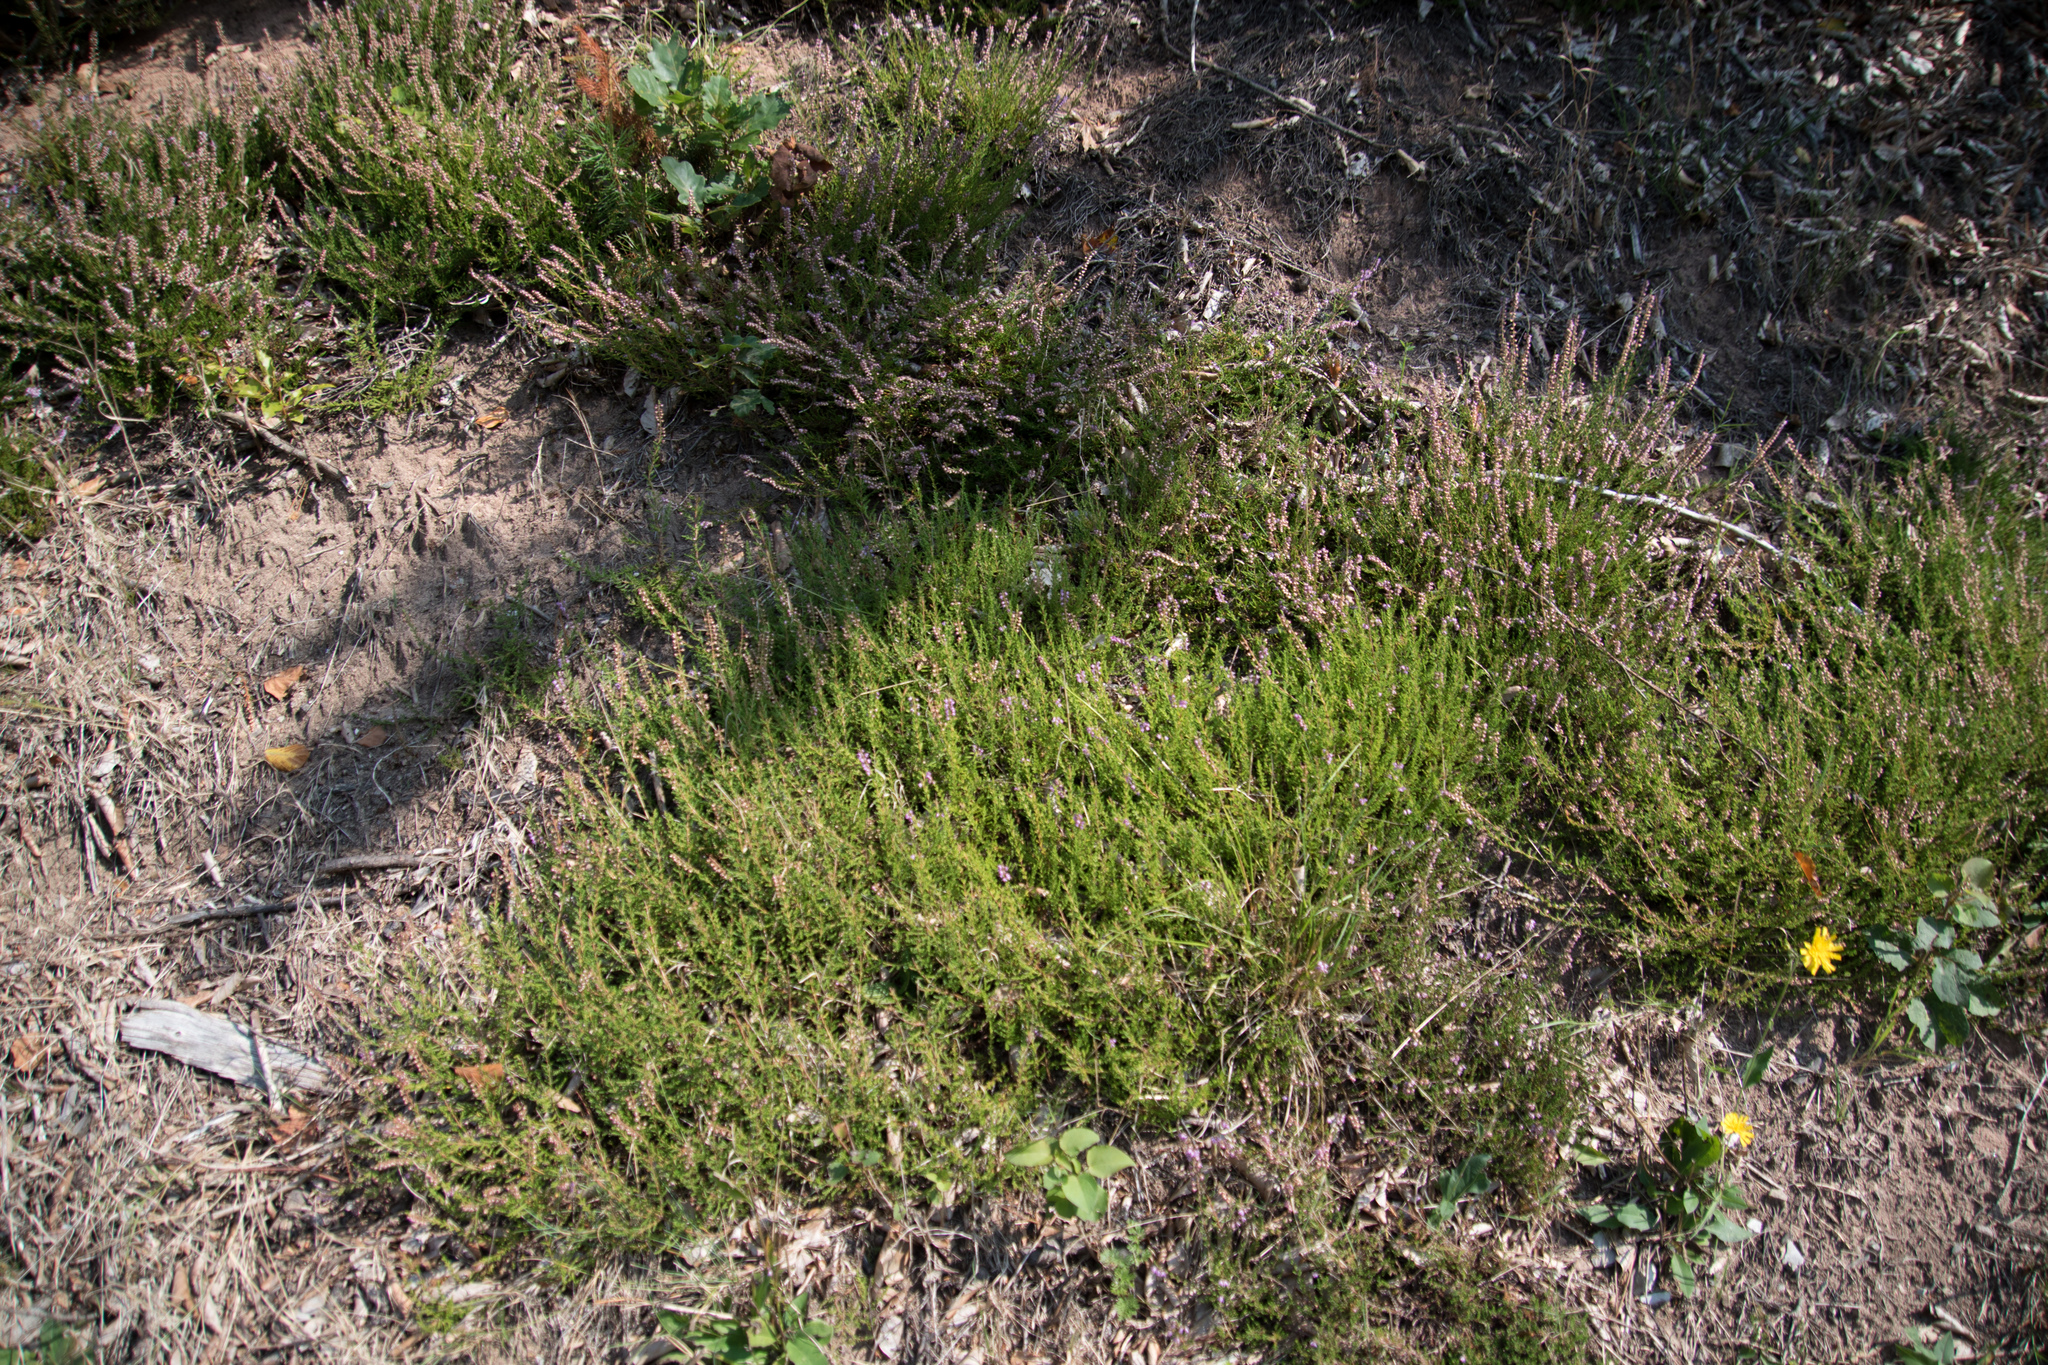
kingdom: Plantae
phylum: Tracheophyta
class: Magnoliopsida
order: Ericales
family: Ericaceae
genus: Calluna
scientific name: Calluna vulgaris
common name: Heather
